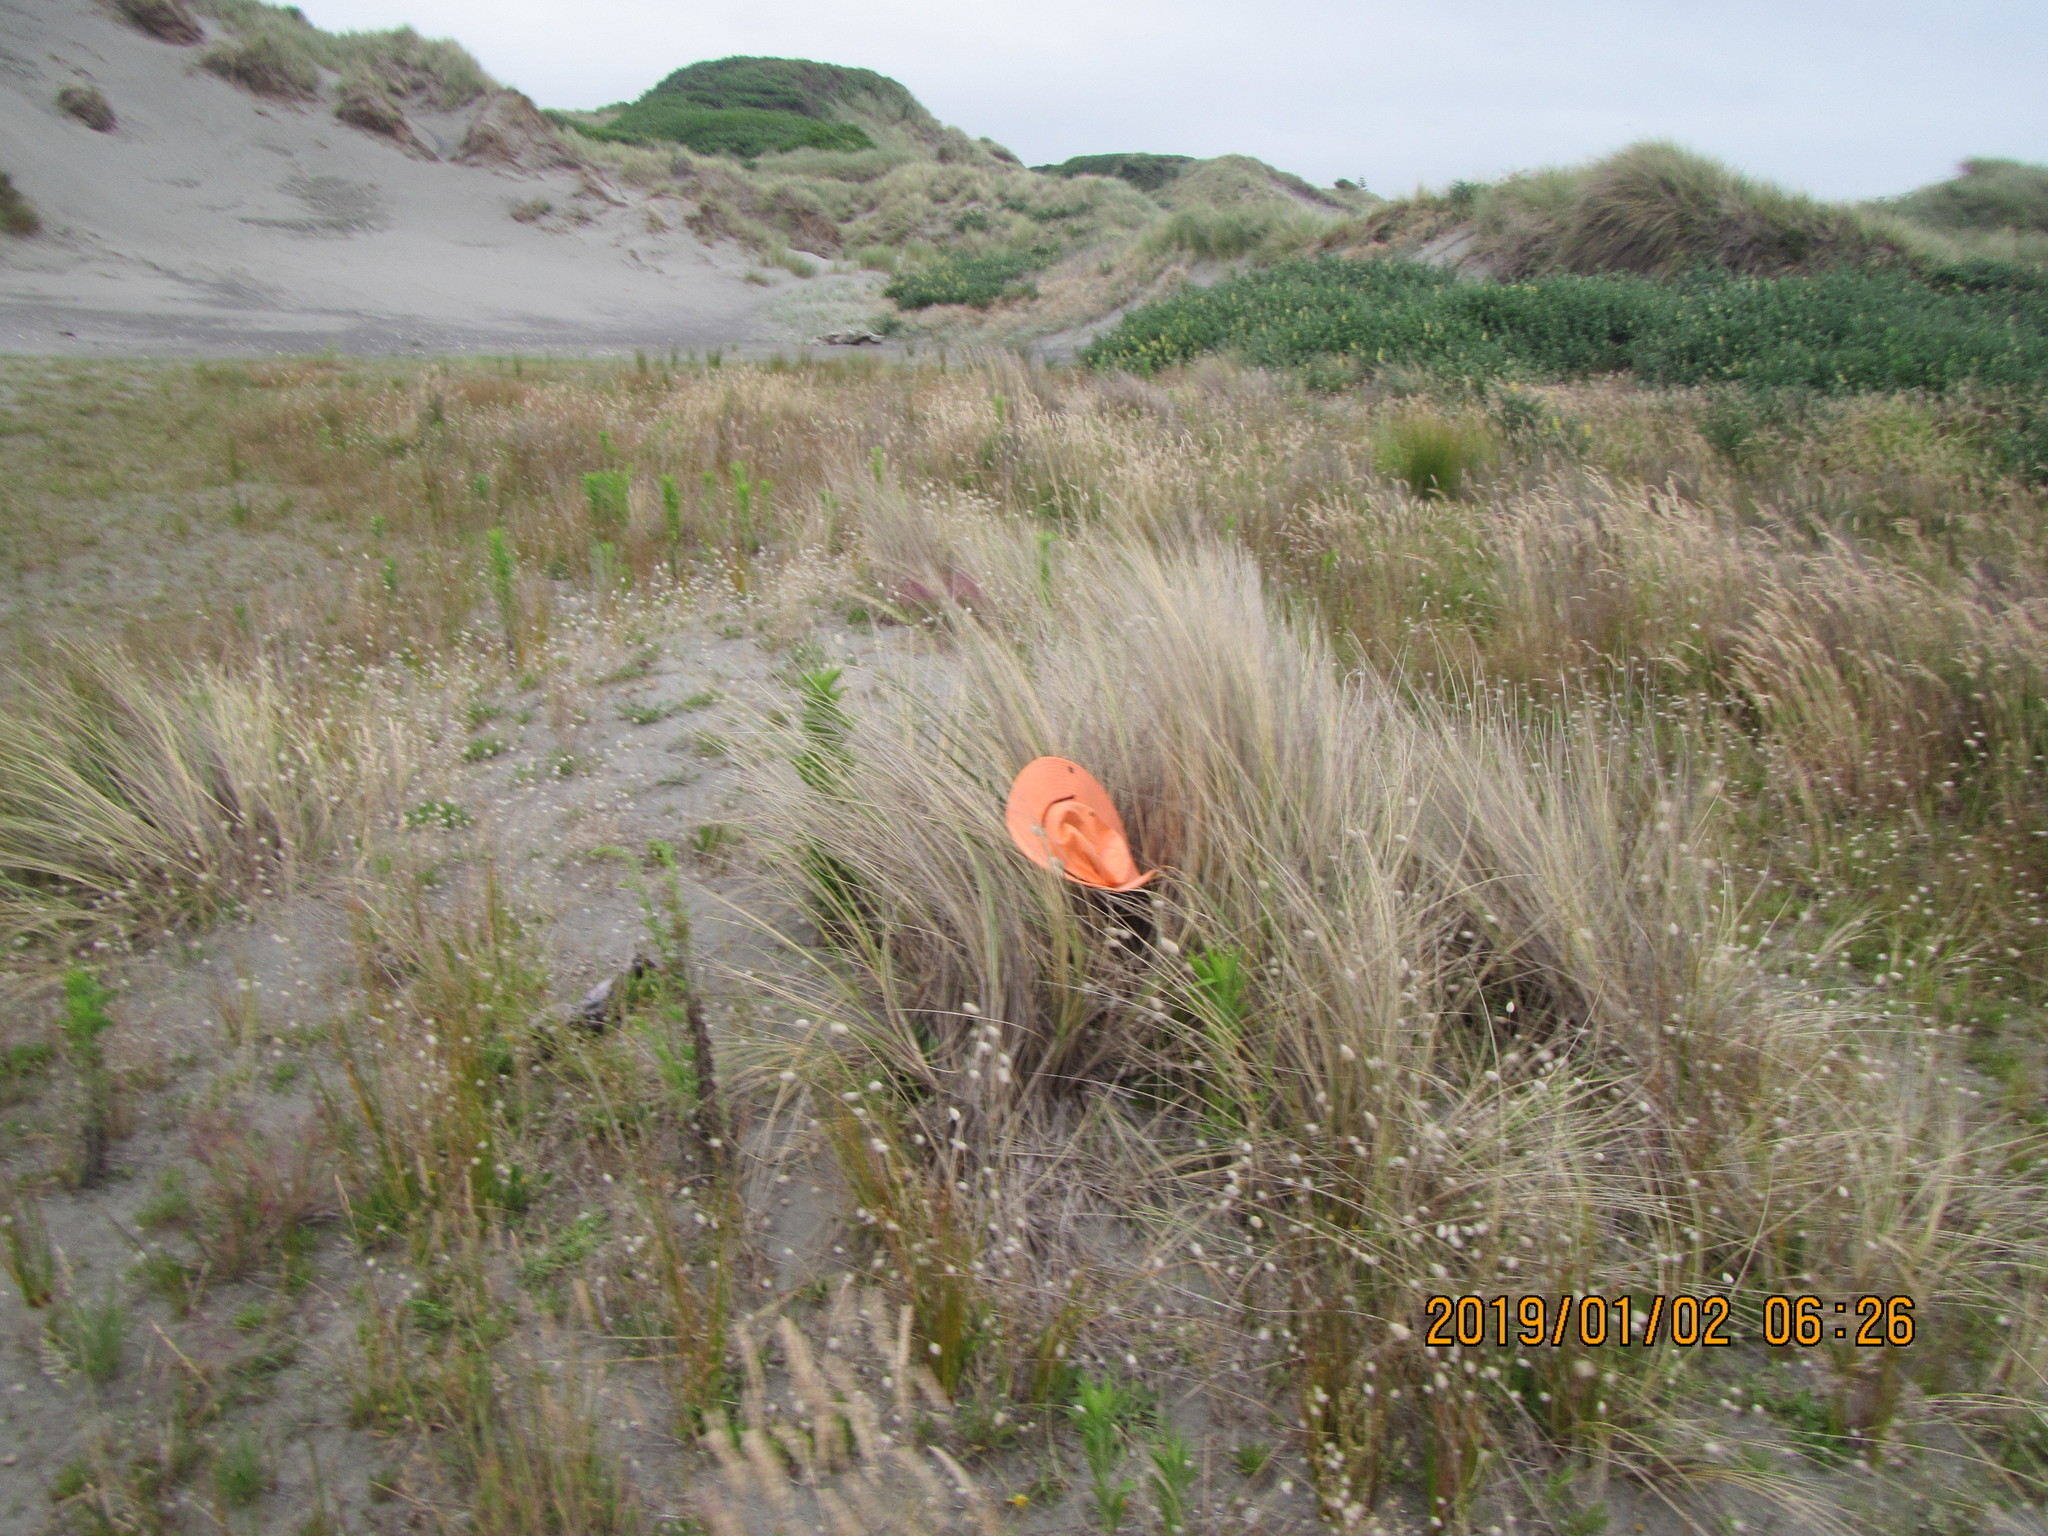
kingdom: Animalia
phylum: Platyhelminthes
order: Tricladida
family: Geoplanidae
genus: Caenoplana
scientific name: Caenoplana coerulea
